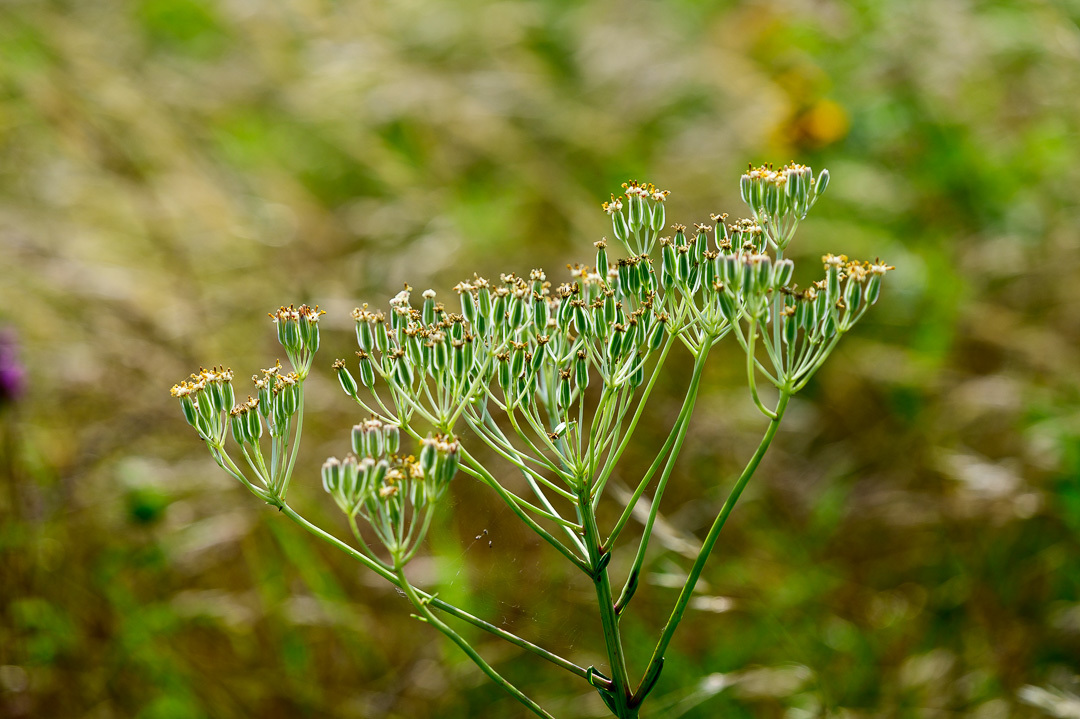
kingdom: Plantae
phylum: Tracheophyta
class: Magnoliopsida
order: Asterales
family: Asteraceae
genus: Arnoglossum
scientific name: Arnoglossum plantagineum
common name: Groove-stemmed indian-plantain
